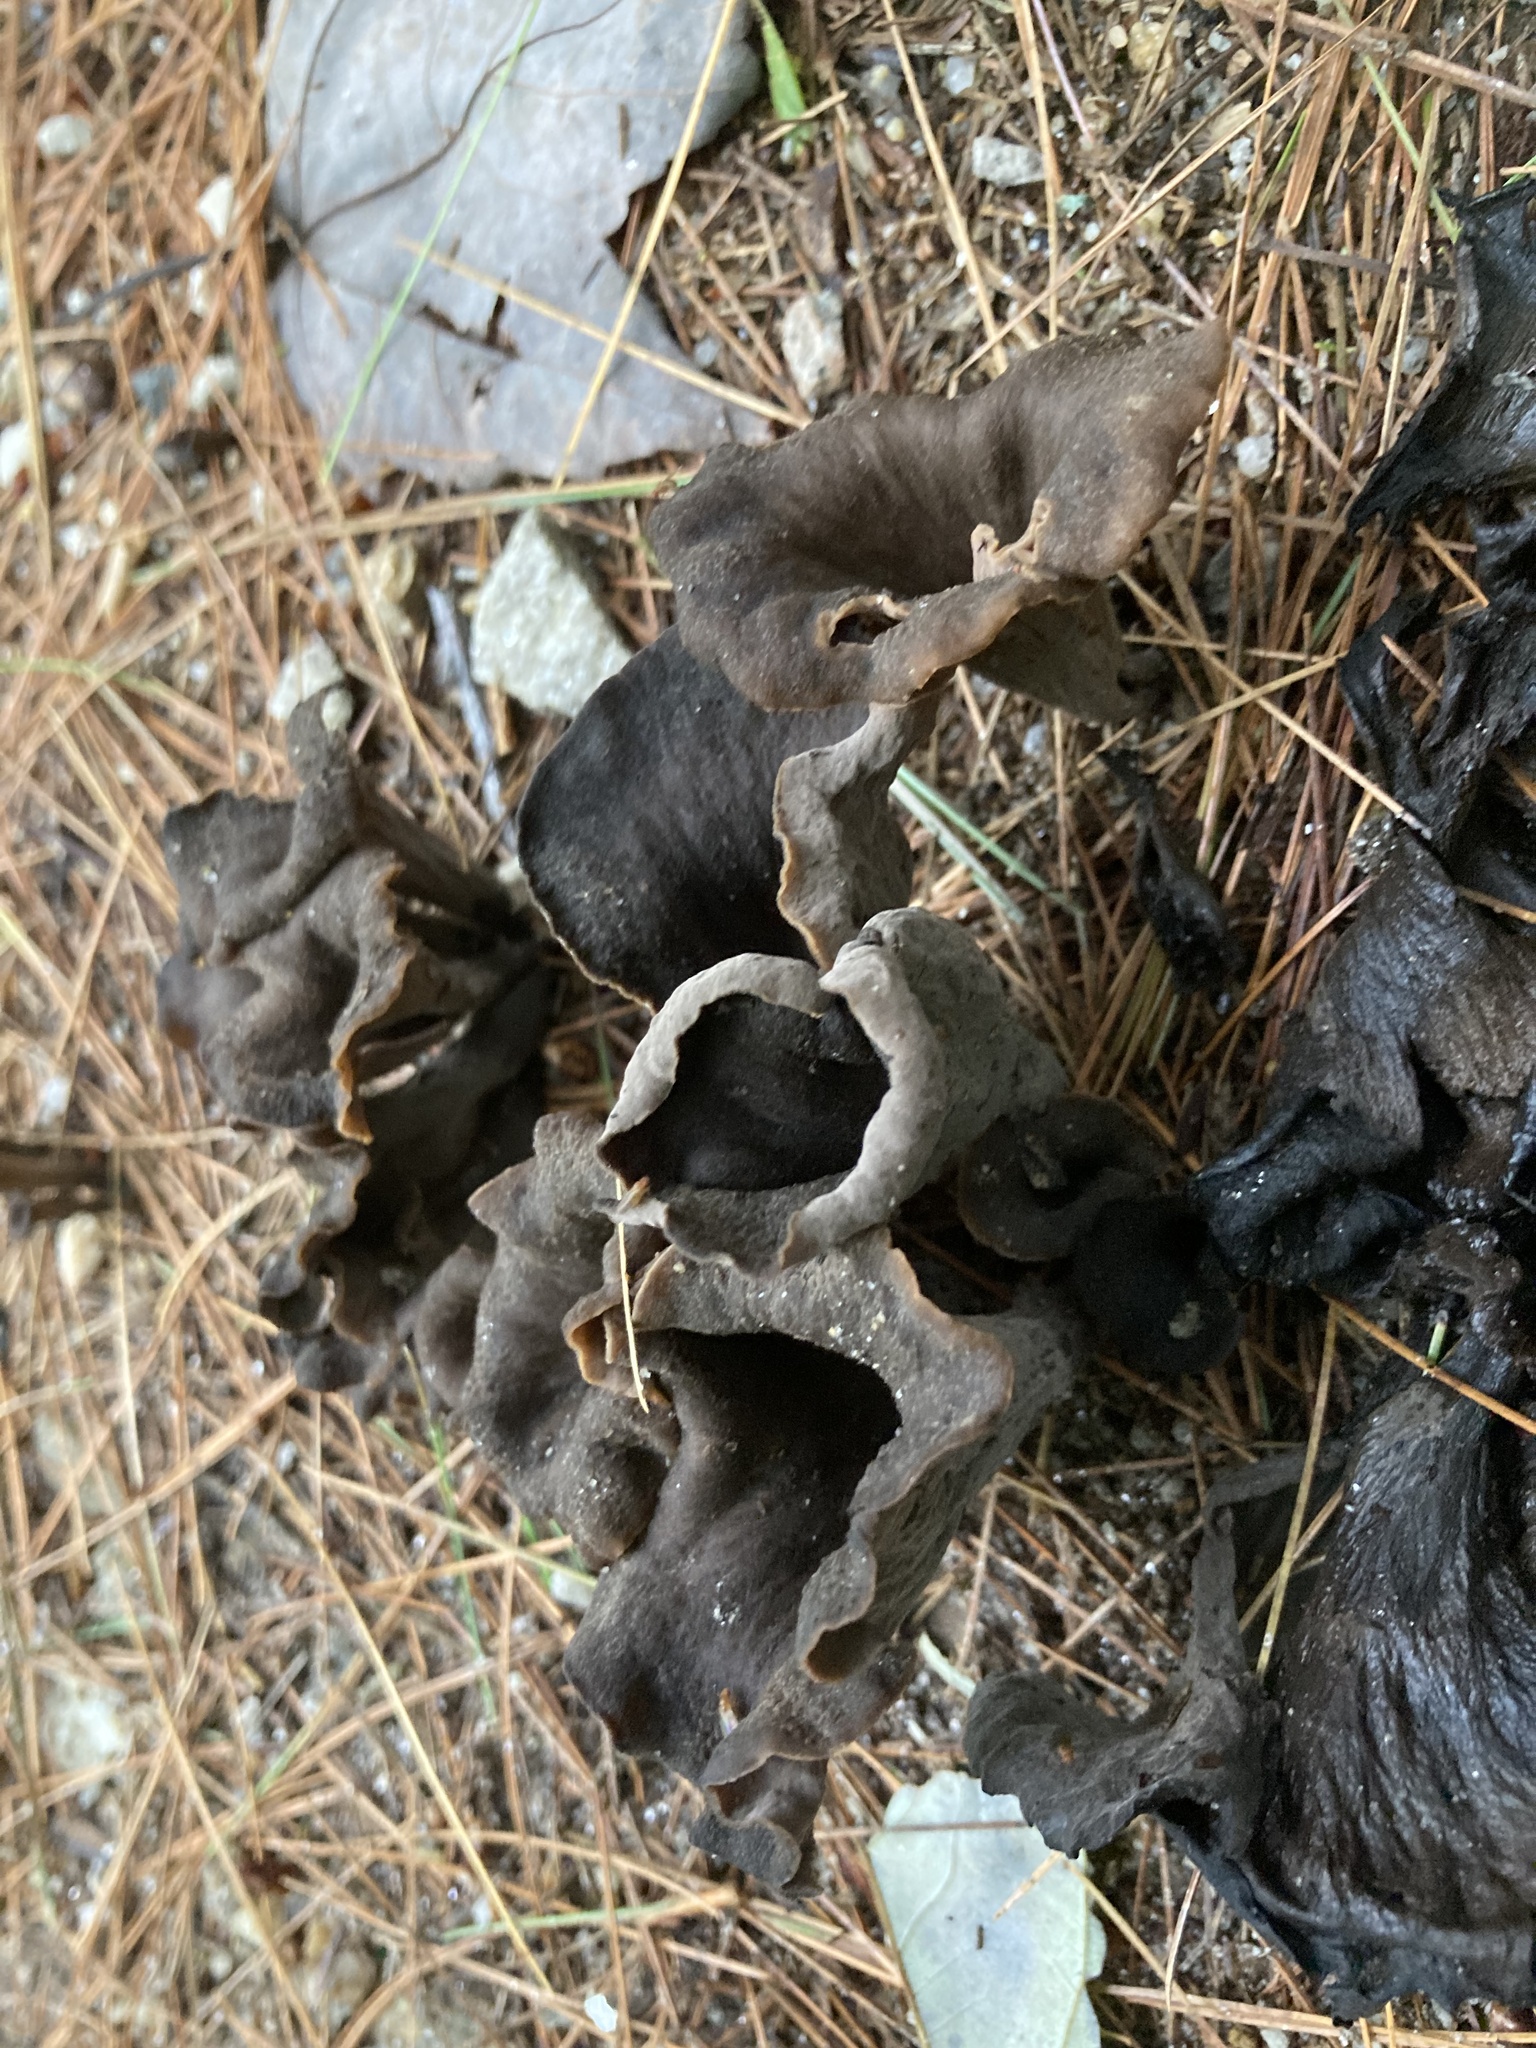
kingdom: Fungi
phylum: Basidiomycota
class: Agaricomycetes
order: Cantharellales
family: Hydnaceae
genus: Craterellus
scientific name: Craterellus cornucopioides
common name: Horn of plenty
